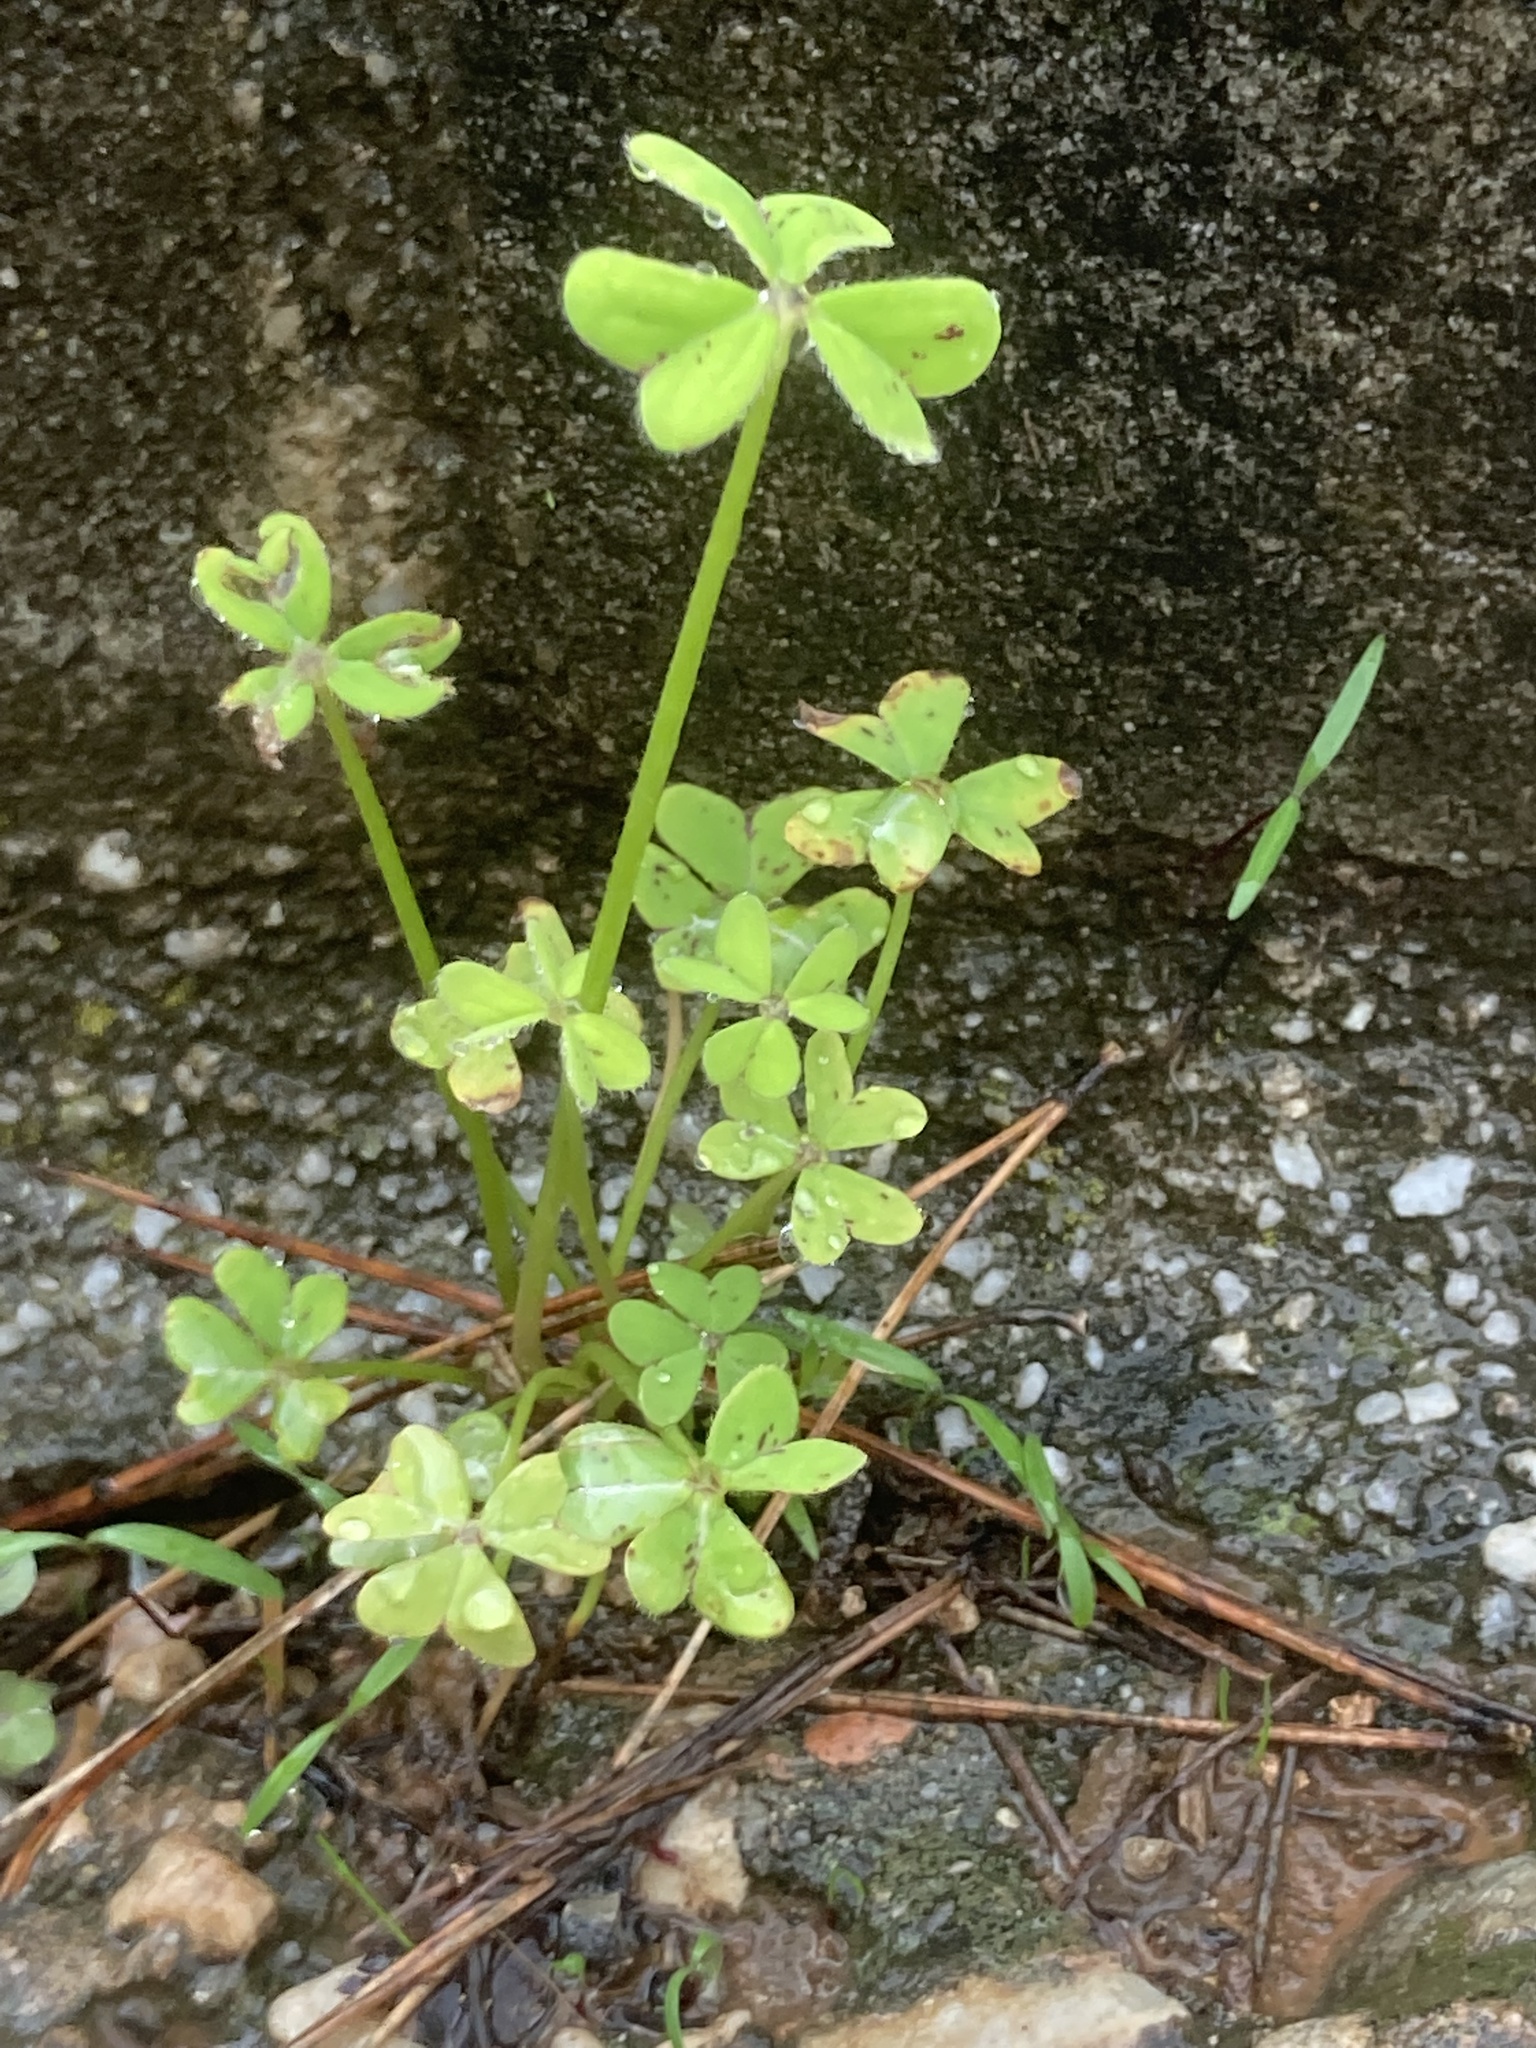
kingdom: Plantae
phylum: Tracheophyta
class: Magnoliopsida
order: Oxalidales
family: Oxalidaceae
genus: Oxalis
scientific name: Oxalis pes-caprae
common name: Bermuda-buttercup
